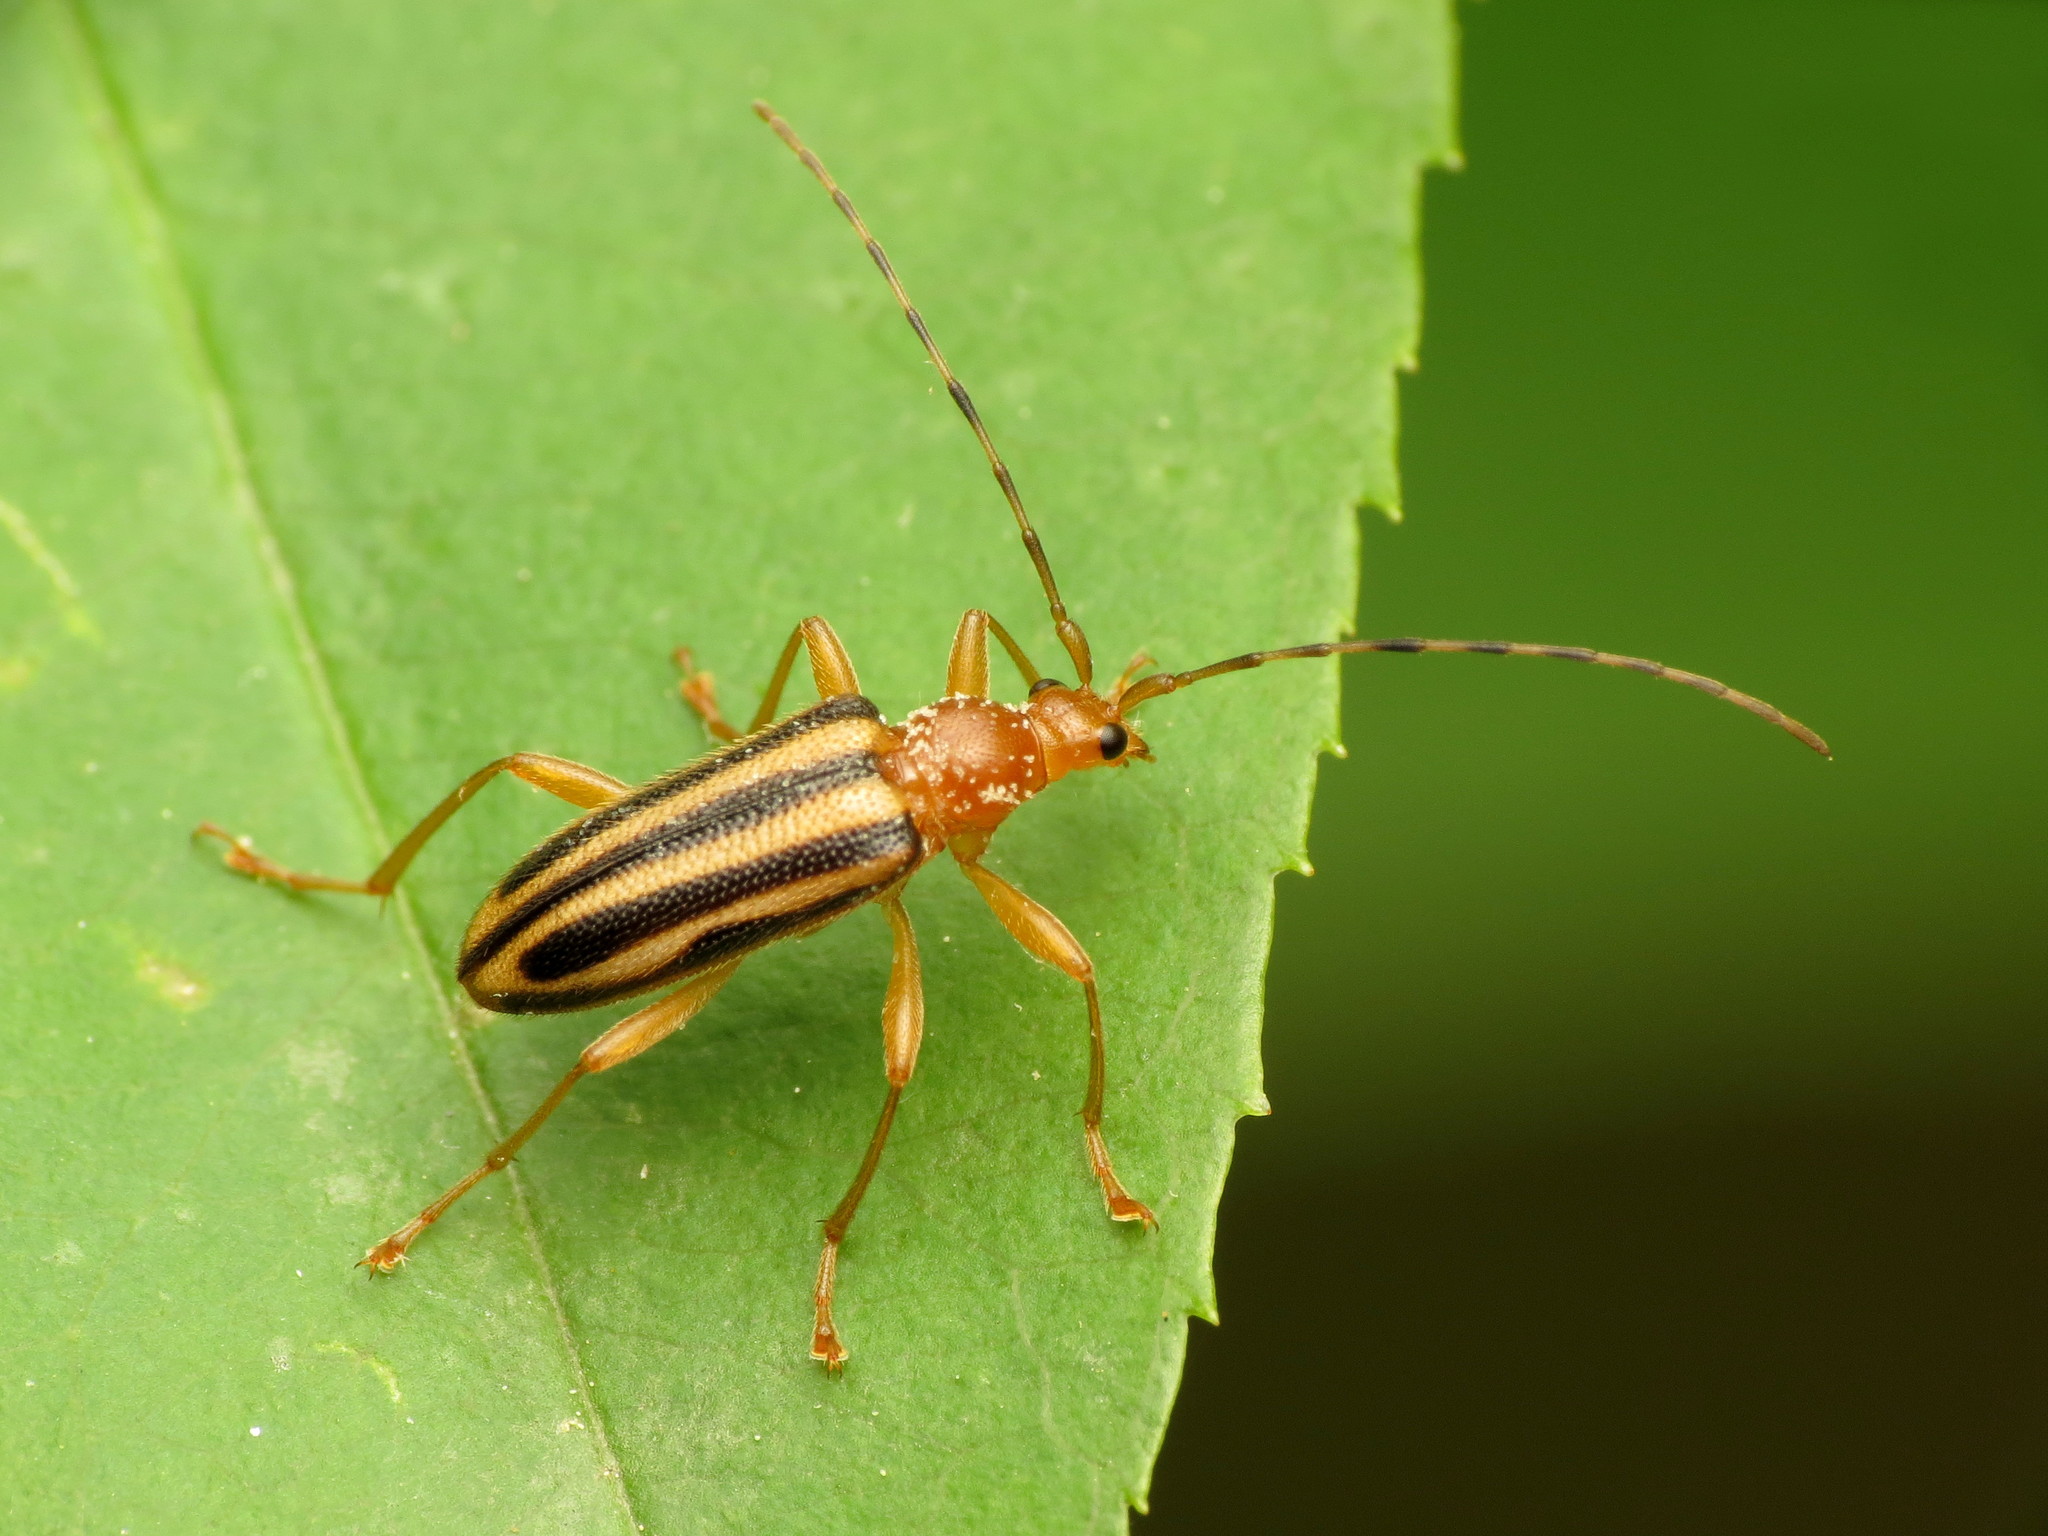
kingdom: Animalia
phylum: Arthropoda
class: Insecta
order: Coleoptera
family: Cerambycidae
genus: Metacmaeops
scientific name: Metacmaeops vittata
